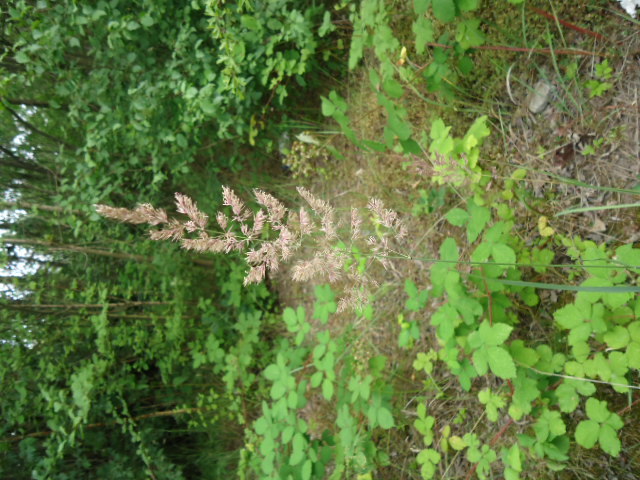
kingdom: Plantae
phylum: Tracheophyta
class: Liliopsida
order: Poales
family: Poaceae
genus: Calamagrostis
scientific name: Calamagrostis epigejos
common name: Wood small-reed
